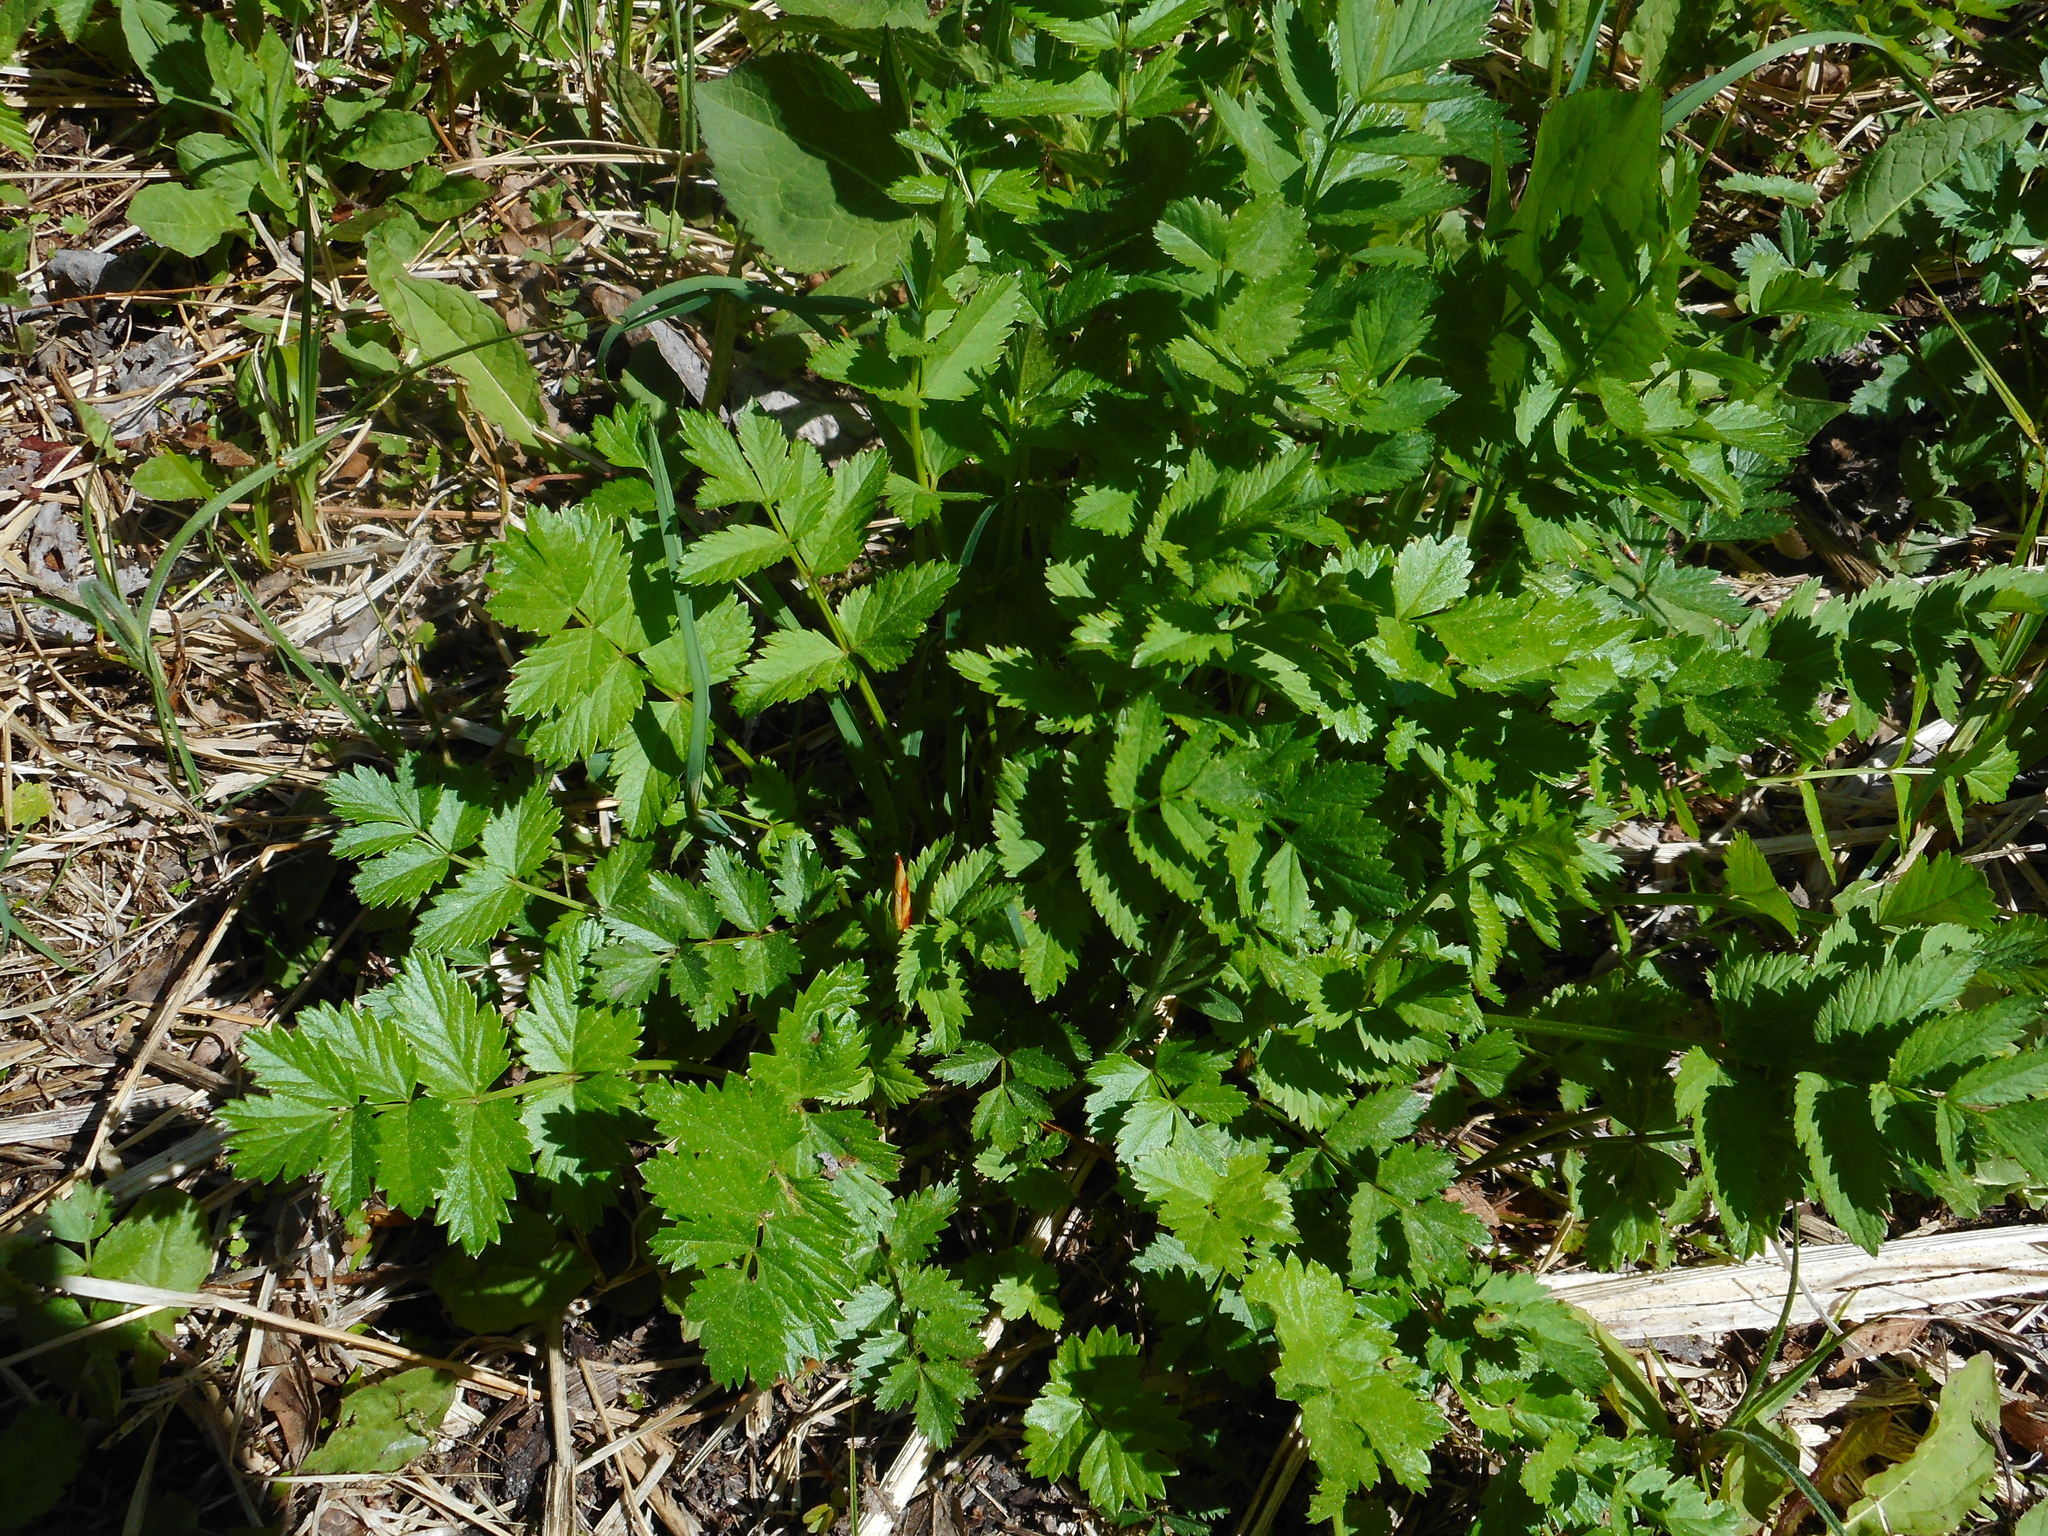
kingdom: Plantae
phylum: Tracheophyta
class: Magnoliopsida
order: Apiales
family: Apiaceae
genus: Pimpinella
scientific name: Pimpinella major
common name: Greater burnet-saxifrage
